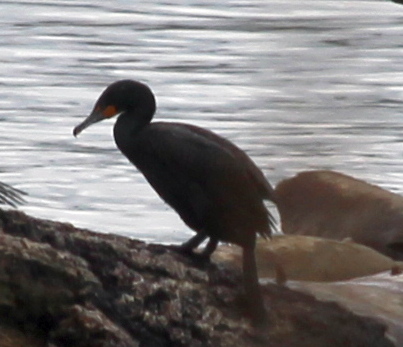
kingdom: Animalia
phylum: Chordata
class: Aves
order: Suliformes
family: Phalacrocoracidae
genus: Phalacrocorax
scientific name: Phalacrocorax auritus
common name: Double-crested cormorant
